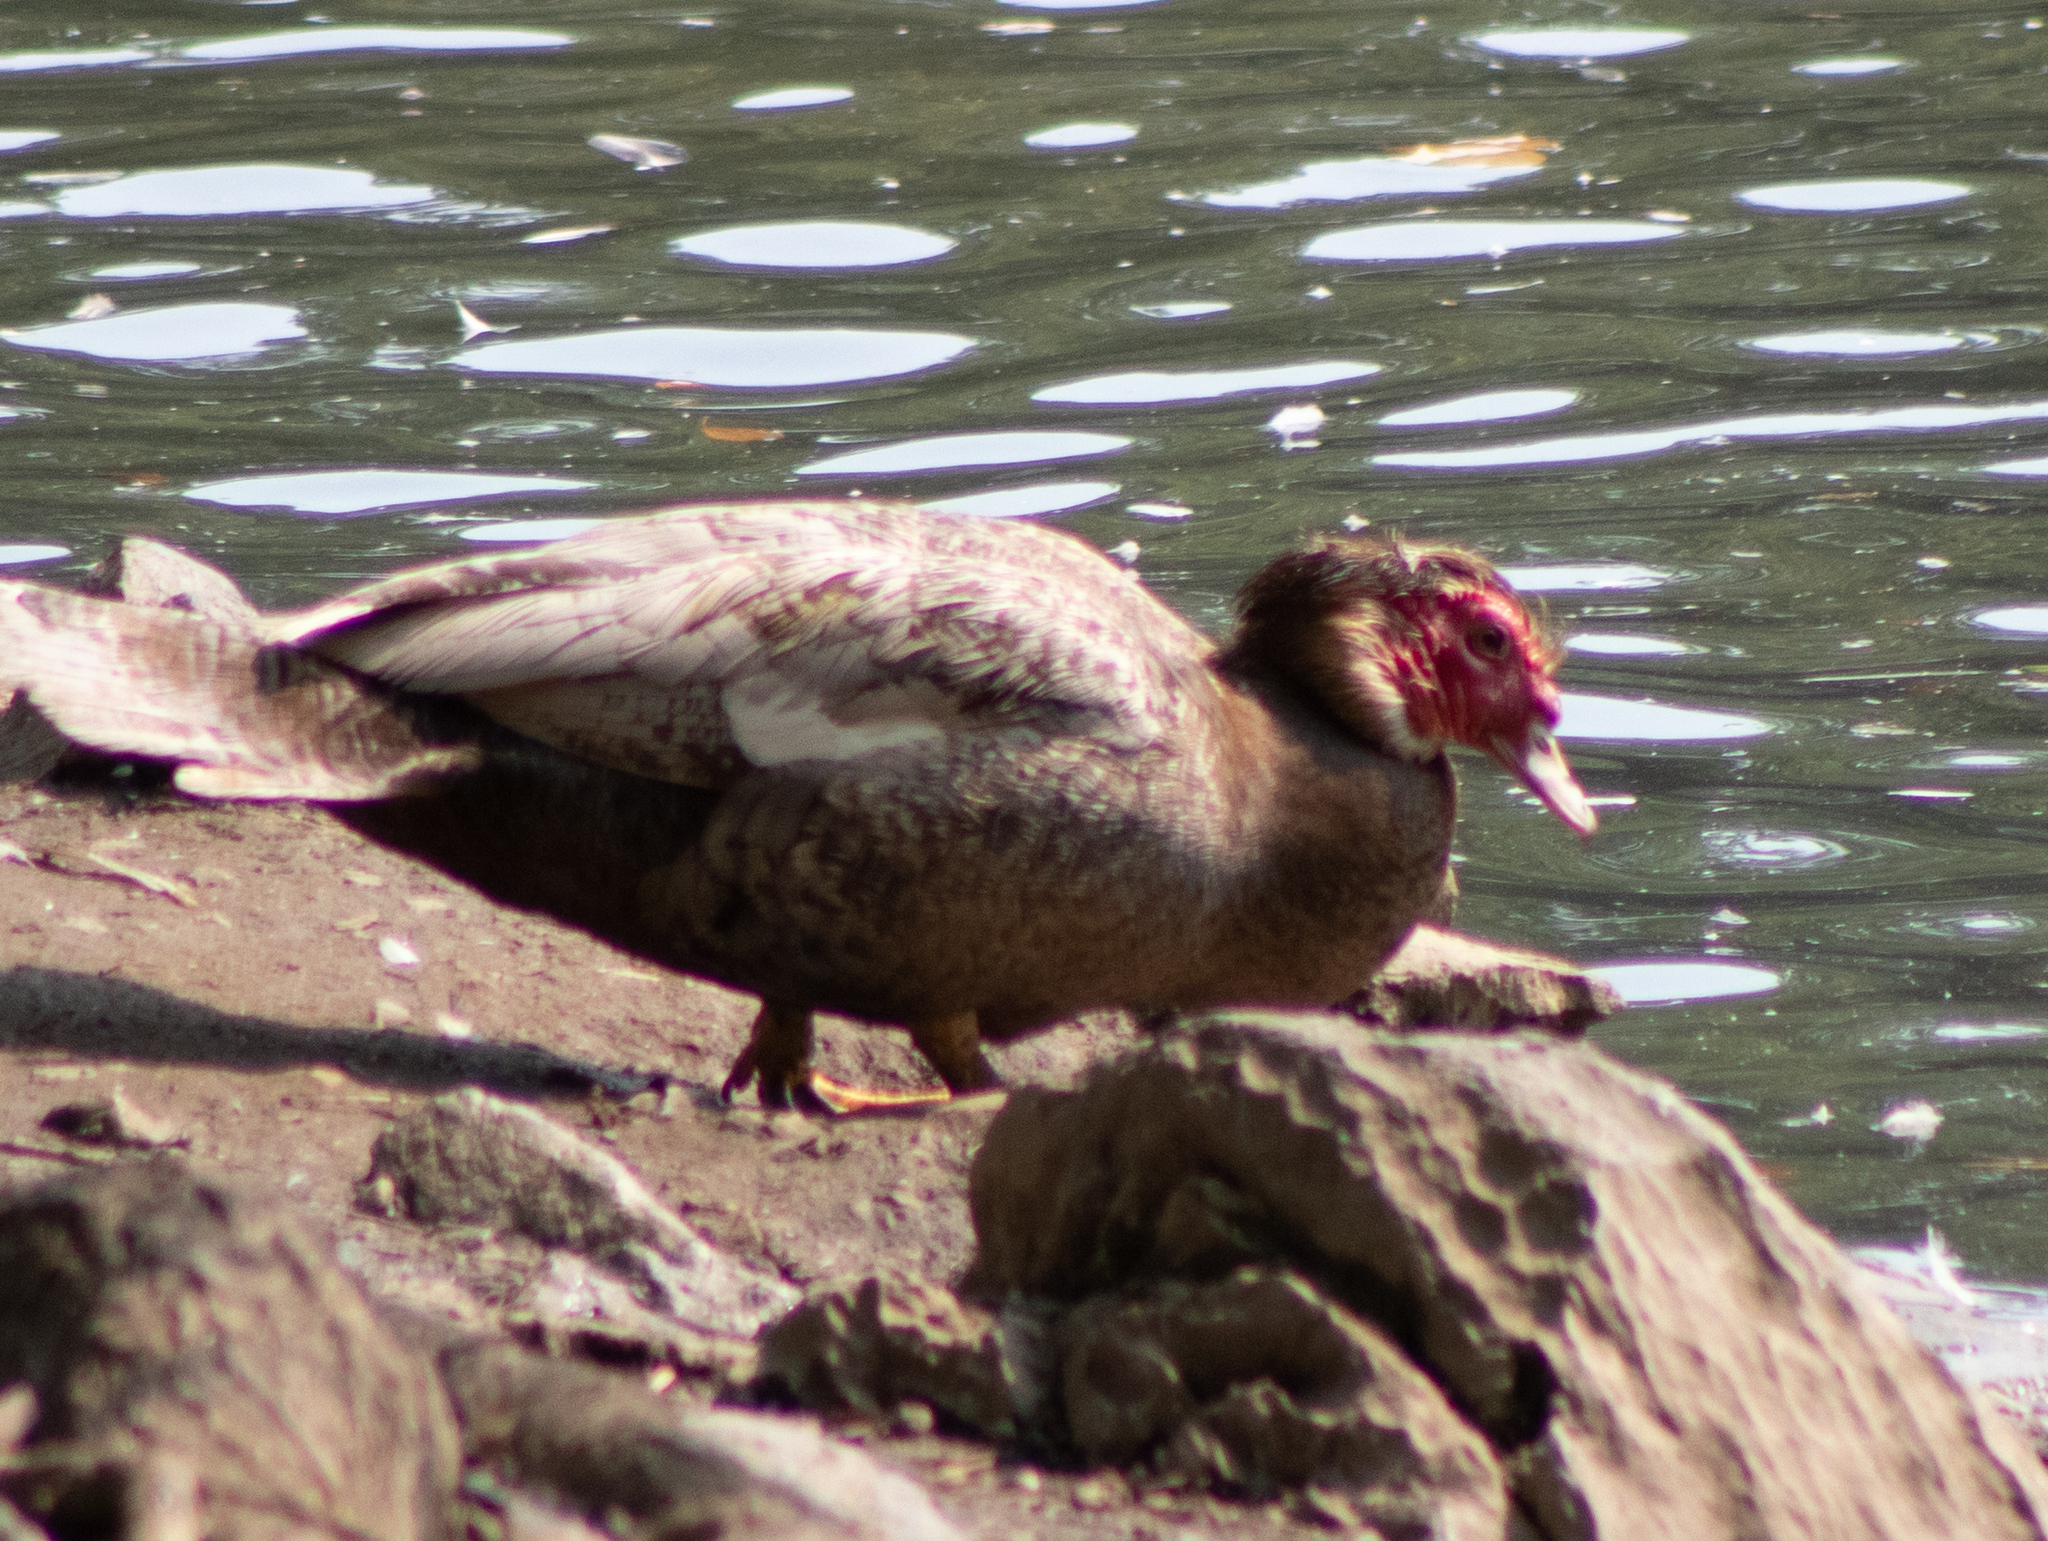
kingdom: Animalia
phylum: Chordata
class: Aves
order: Anseriformes
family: Anatidae
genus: Cairina
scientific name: Cairina moschata
